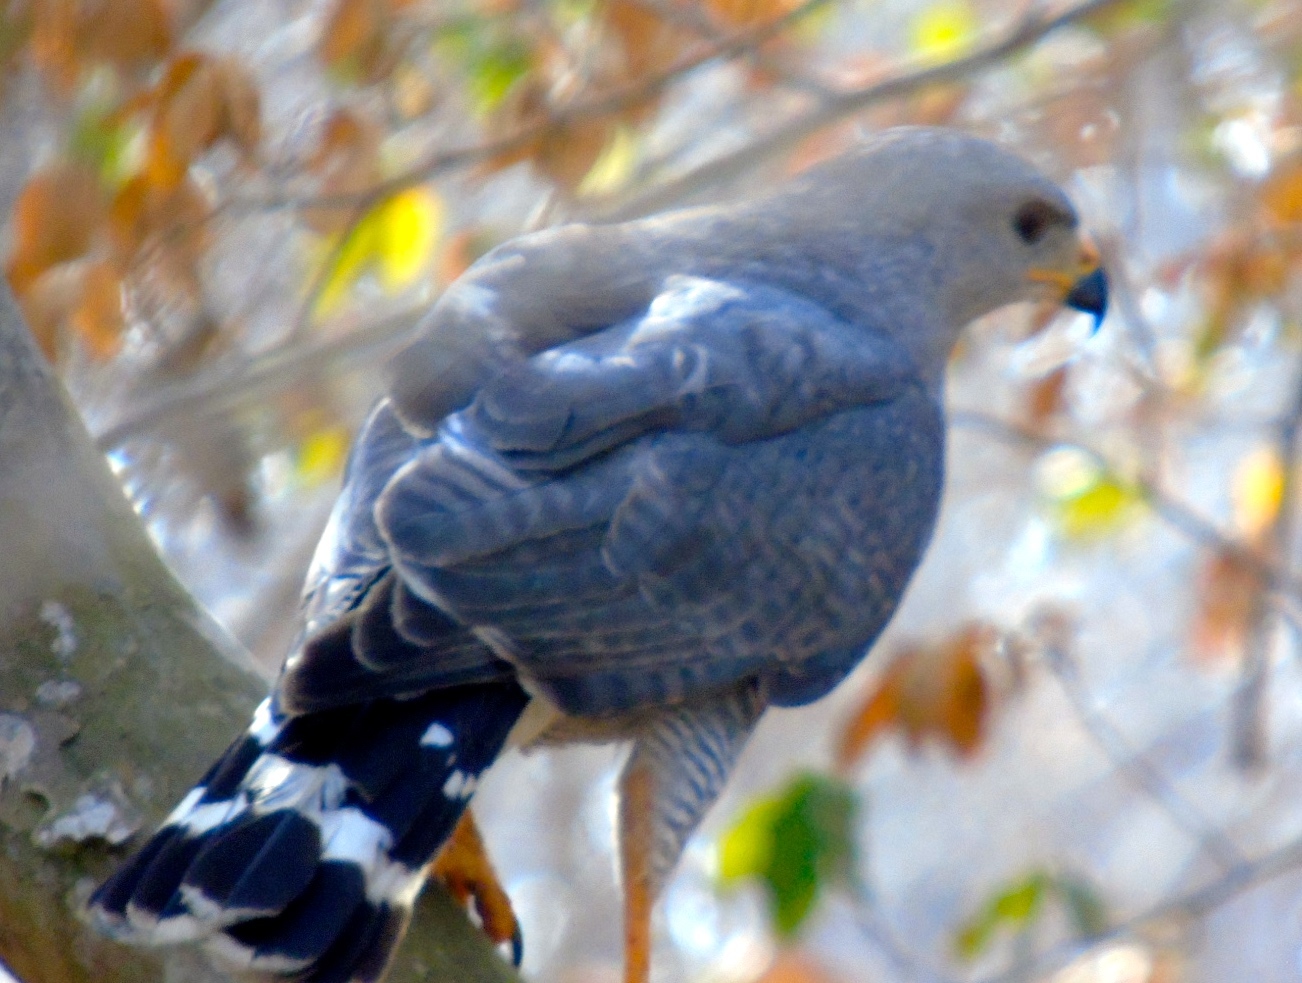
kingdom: Animalia
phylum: Chordata
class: Aves
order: Accipitriformes
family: Accipitridae
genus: Buteo
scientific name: Buteo nitidus
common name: Grey-lined hawk
